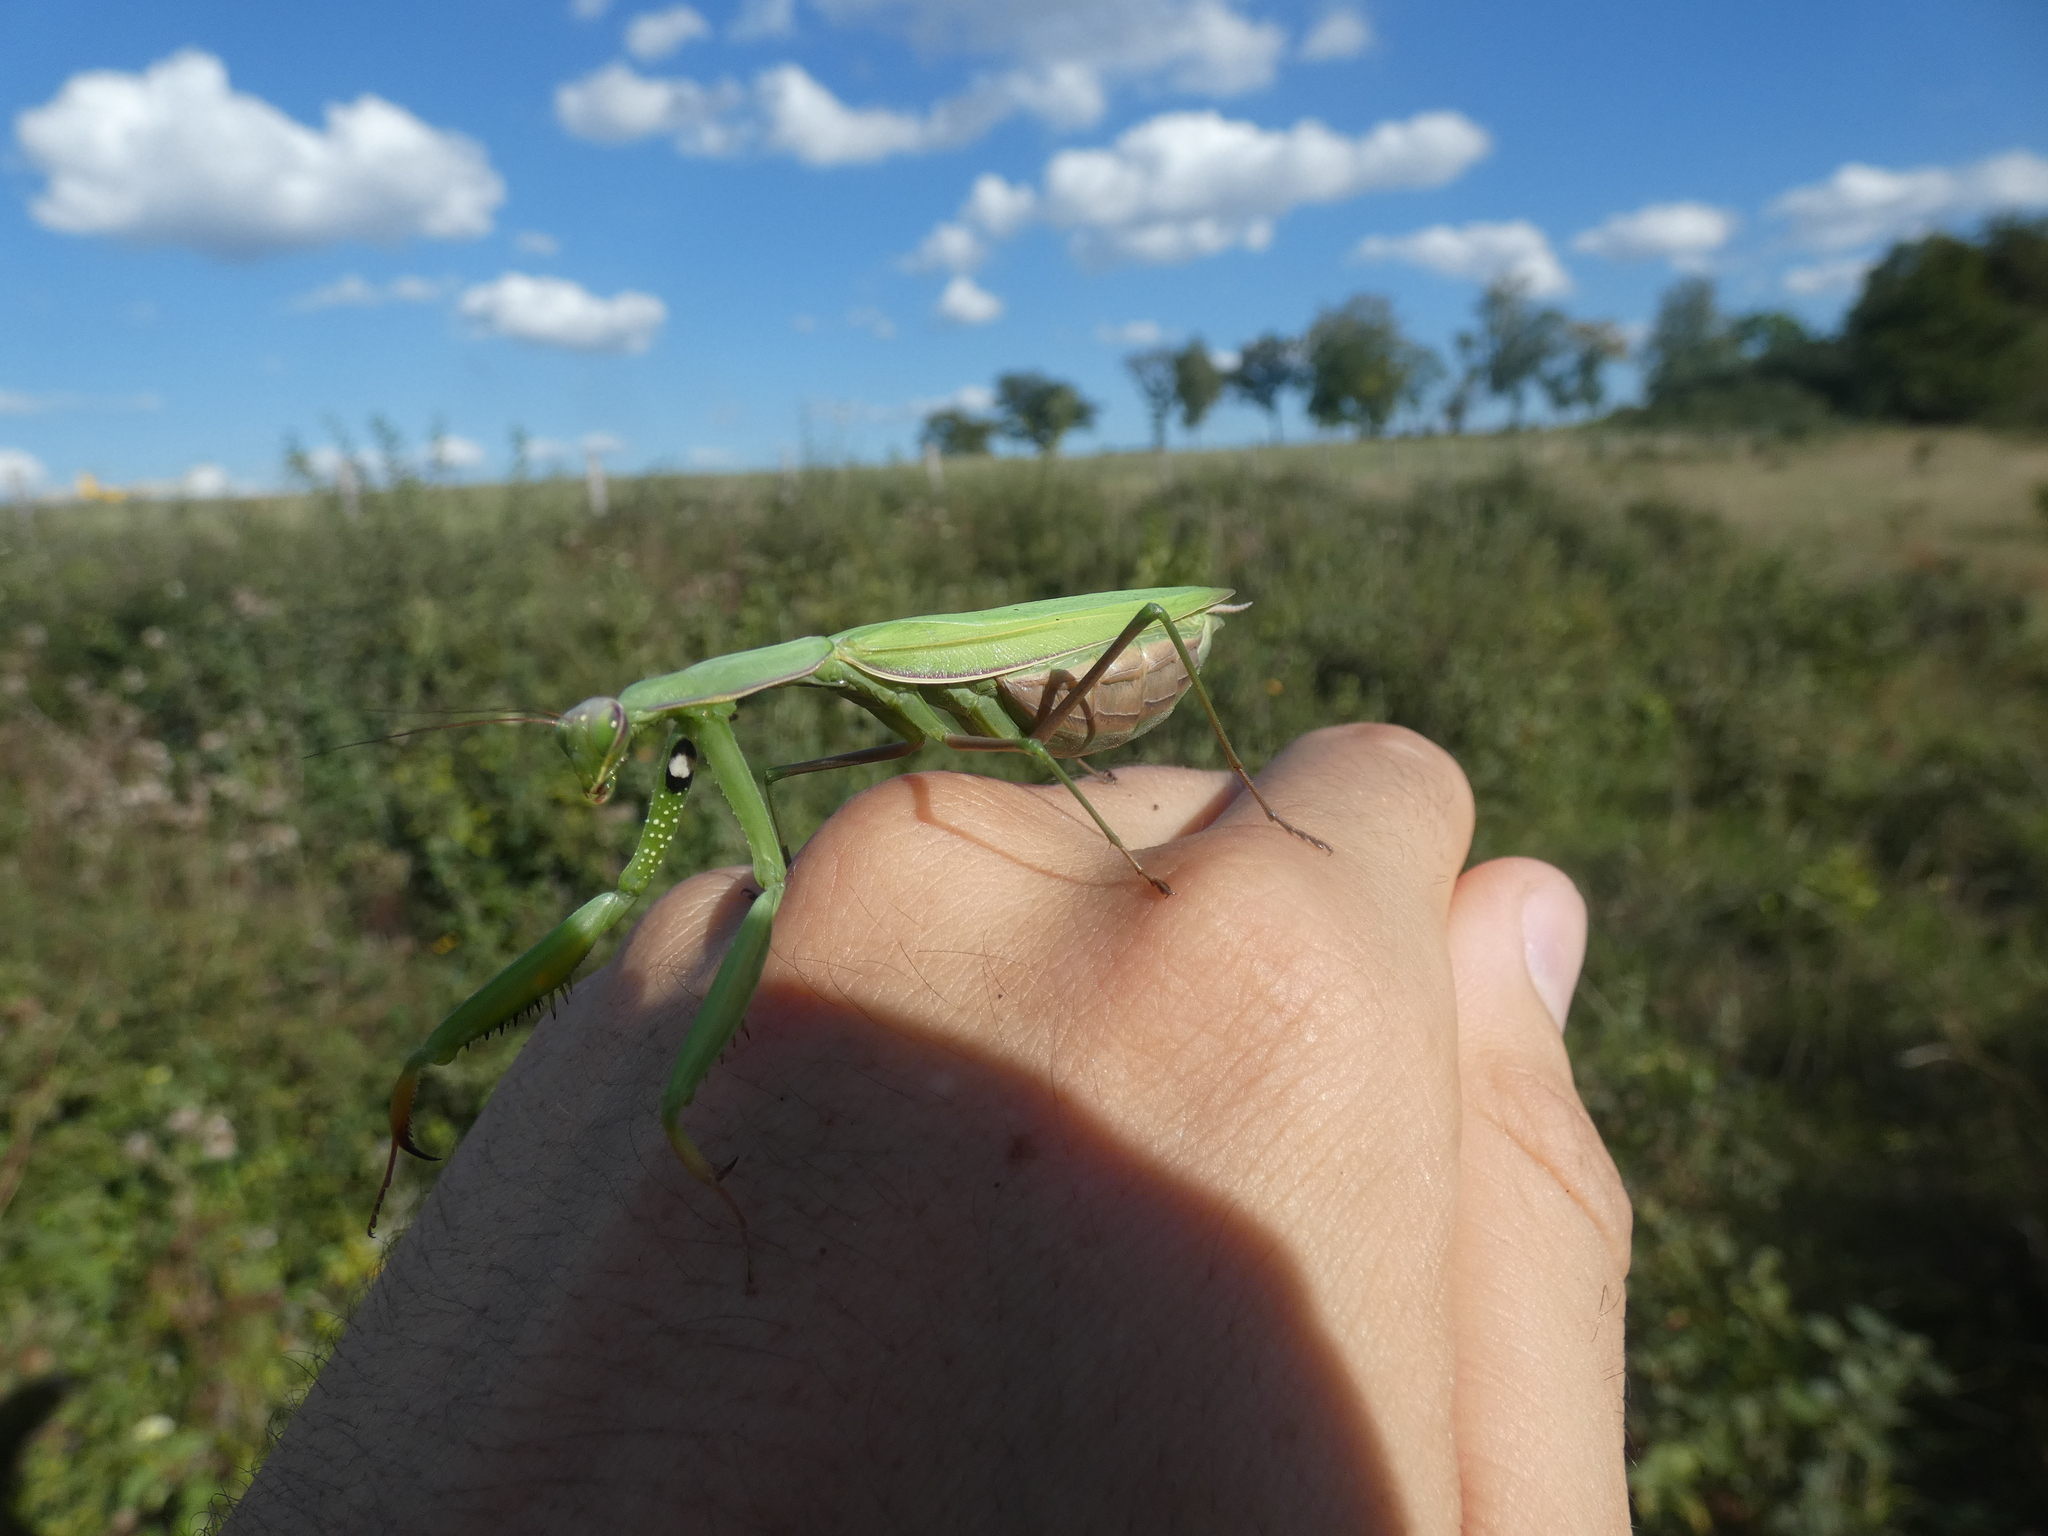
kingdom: Animalia
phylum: Arthropoda
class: Insecta
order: Mantodea
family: Mantidae
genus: Mantis
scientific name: Mantis religiosa
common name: Praying mantis
